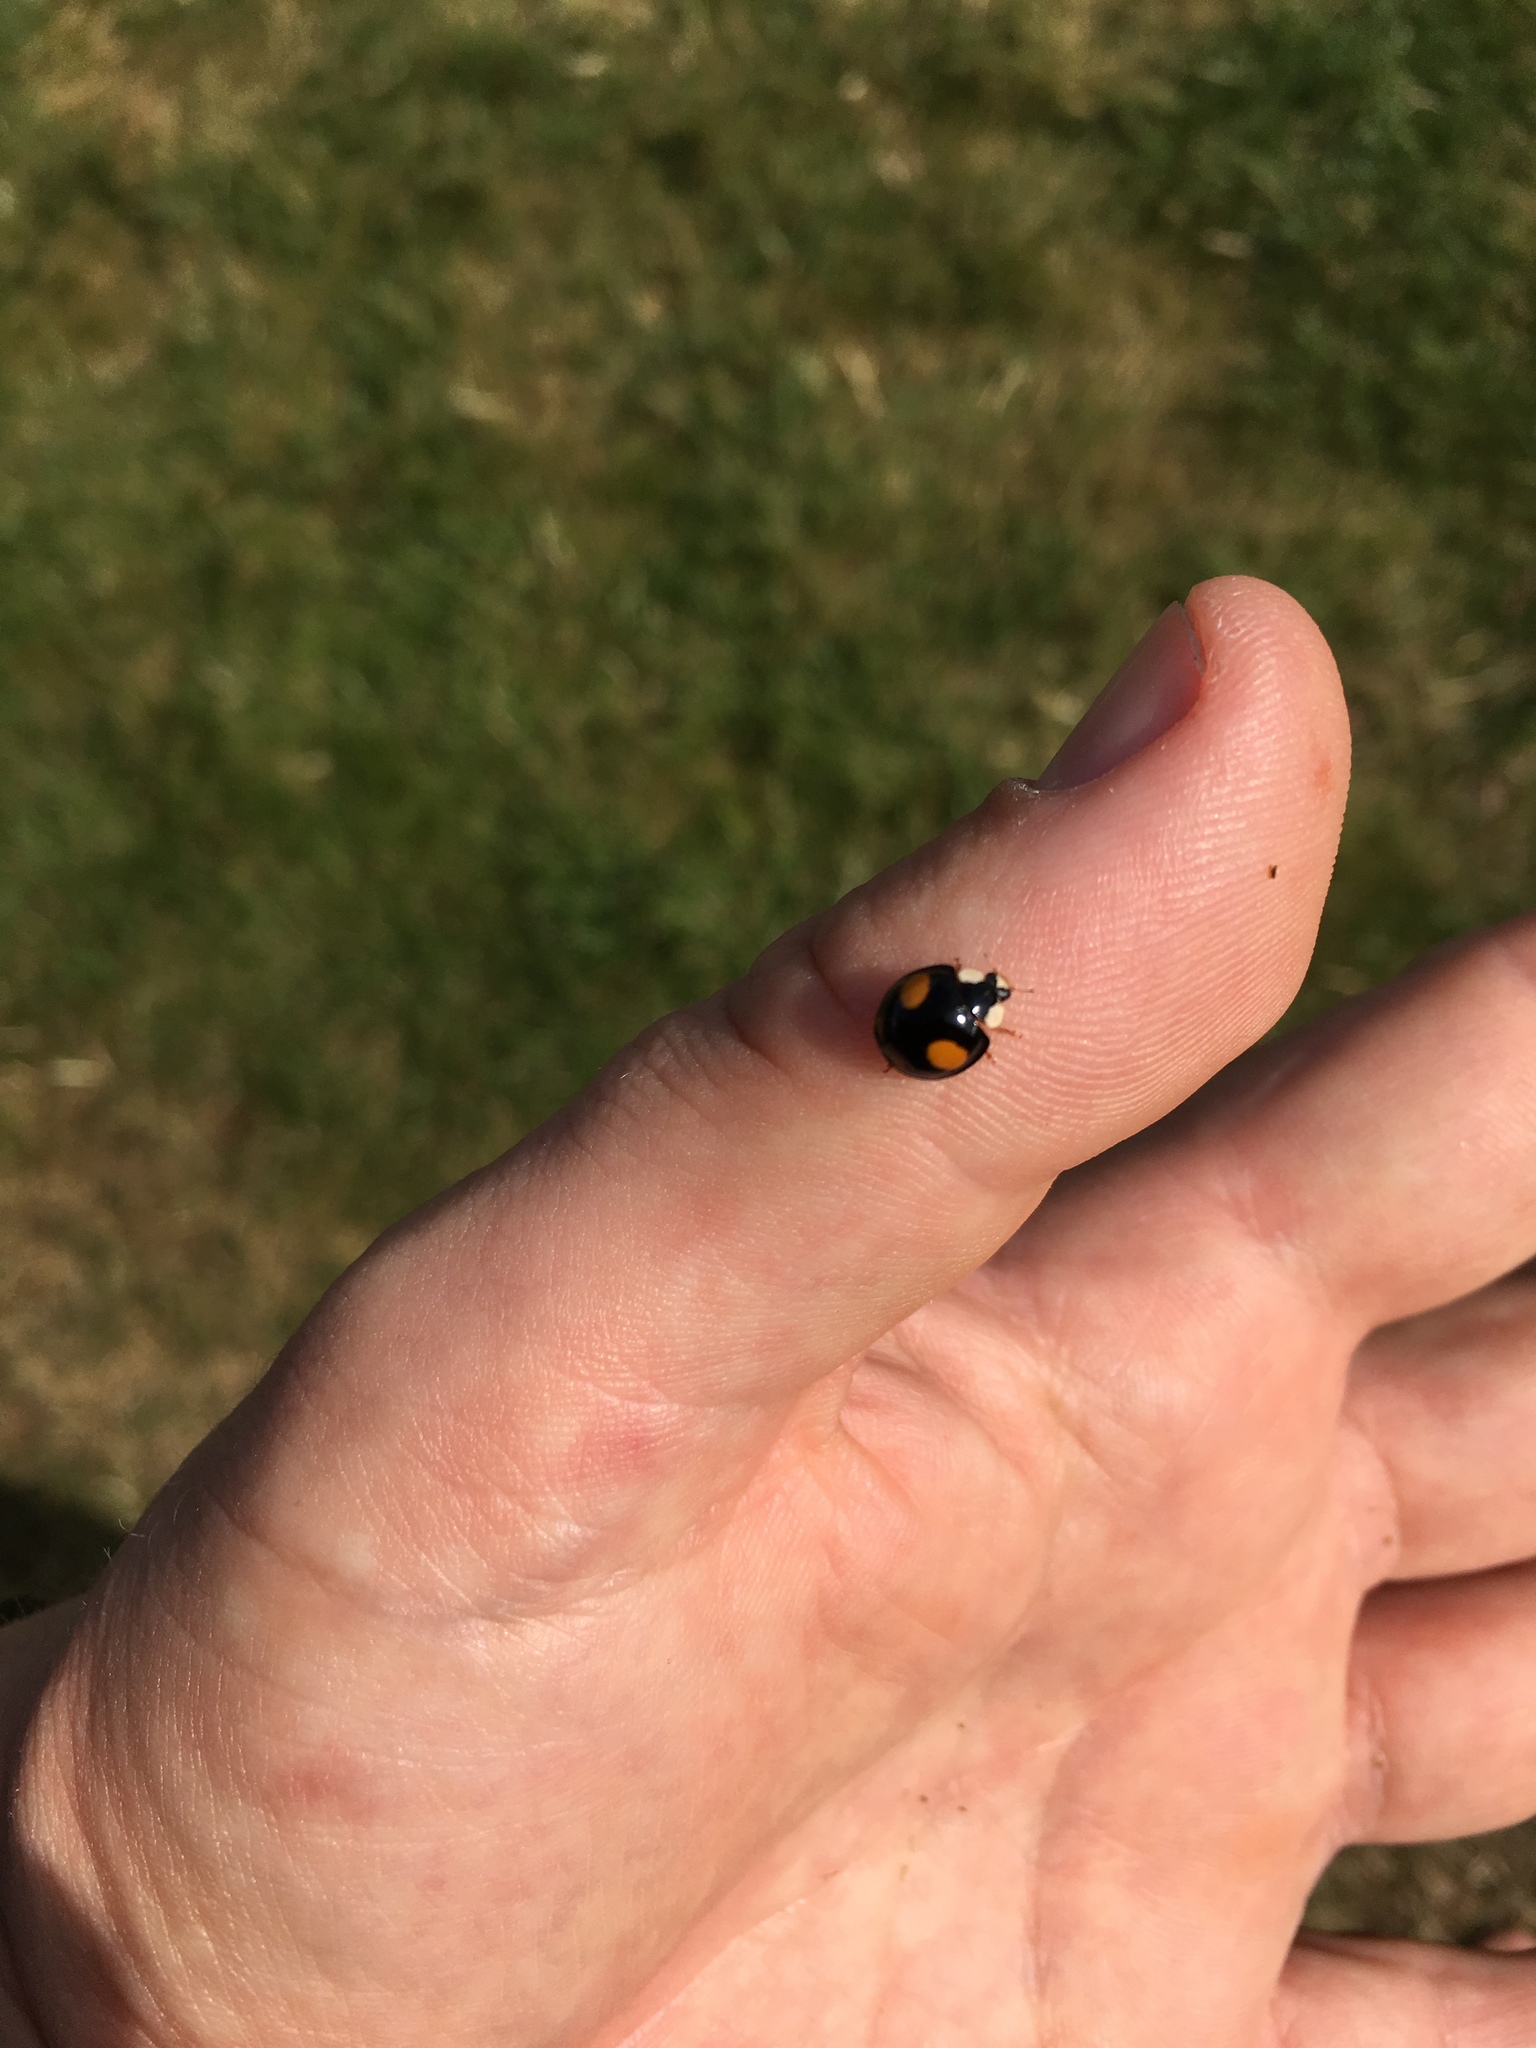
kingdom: Animalia
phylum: Arthropoda
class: Insecta
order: Coleoptera
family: Coccinellidae
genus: Harmonia
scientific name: Harmonia axyridis
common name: Harlequin ladybird
